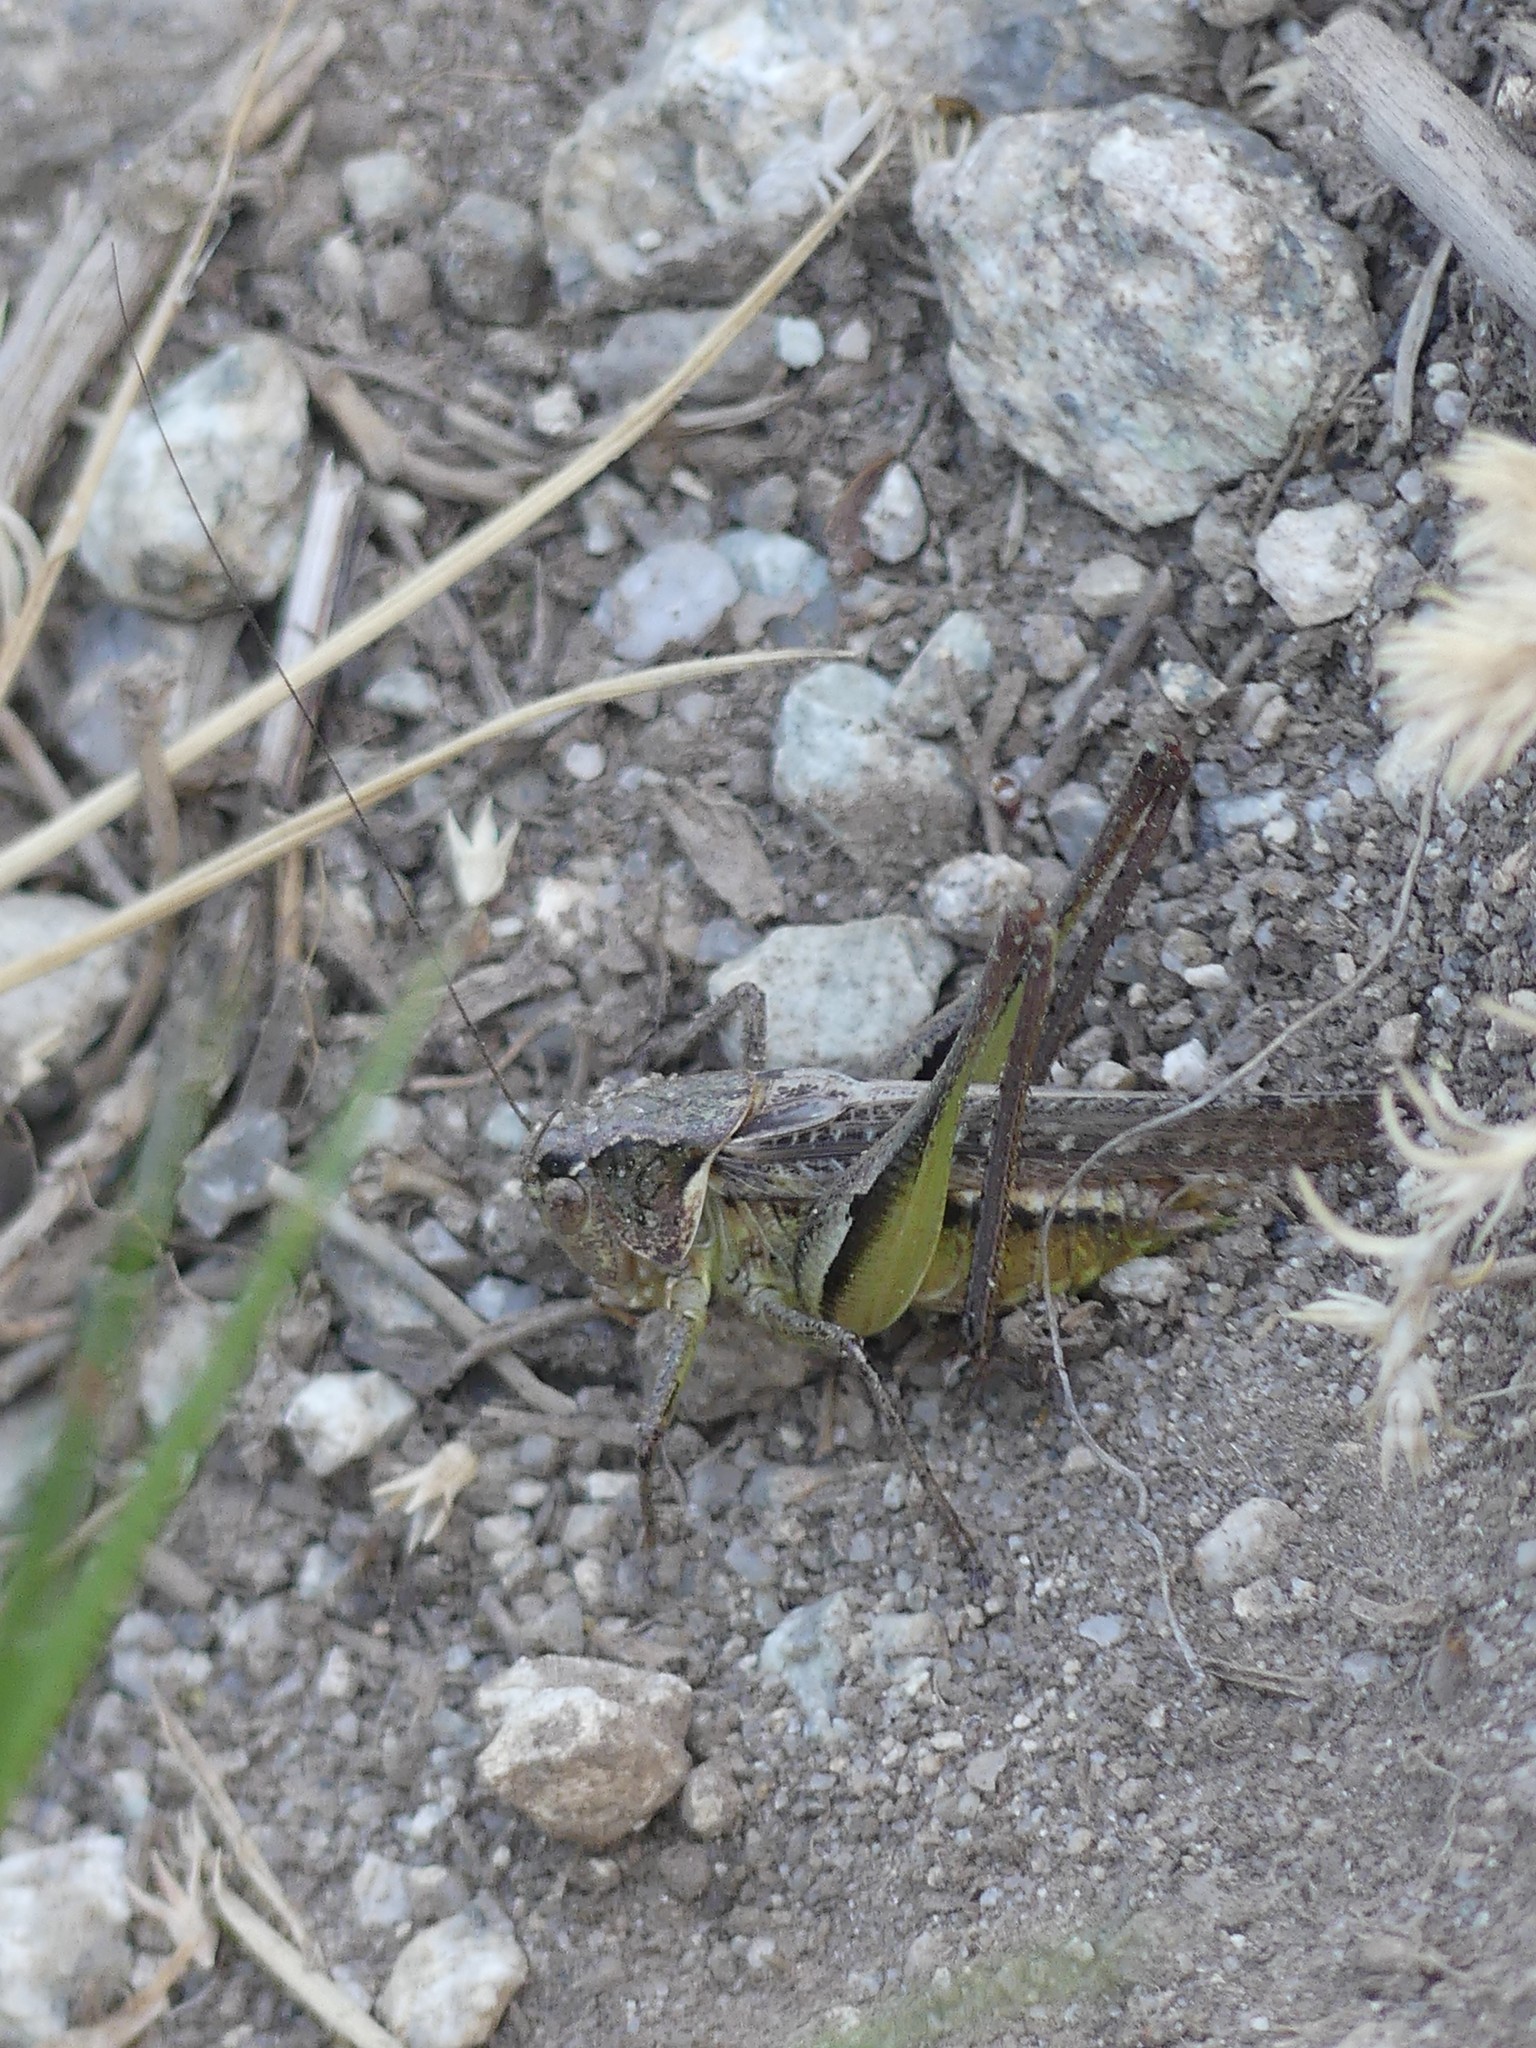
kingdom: Animalia
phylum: Arthropoda
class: Insecta
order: Orthoptera
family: Tettigoniidae
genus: Platycleis
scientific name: Platycleis albopunctata
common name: Grey bush-cricket
